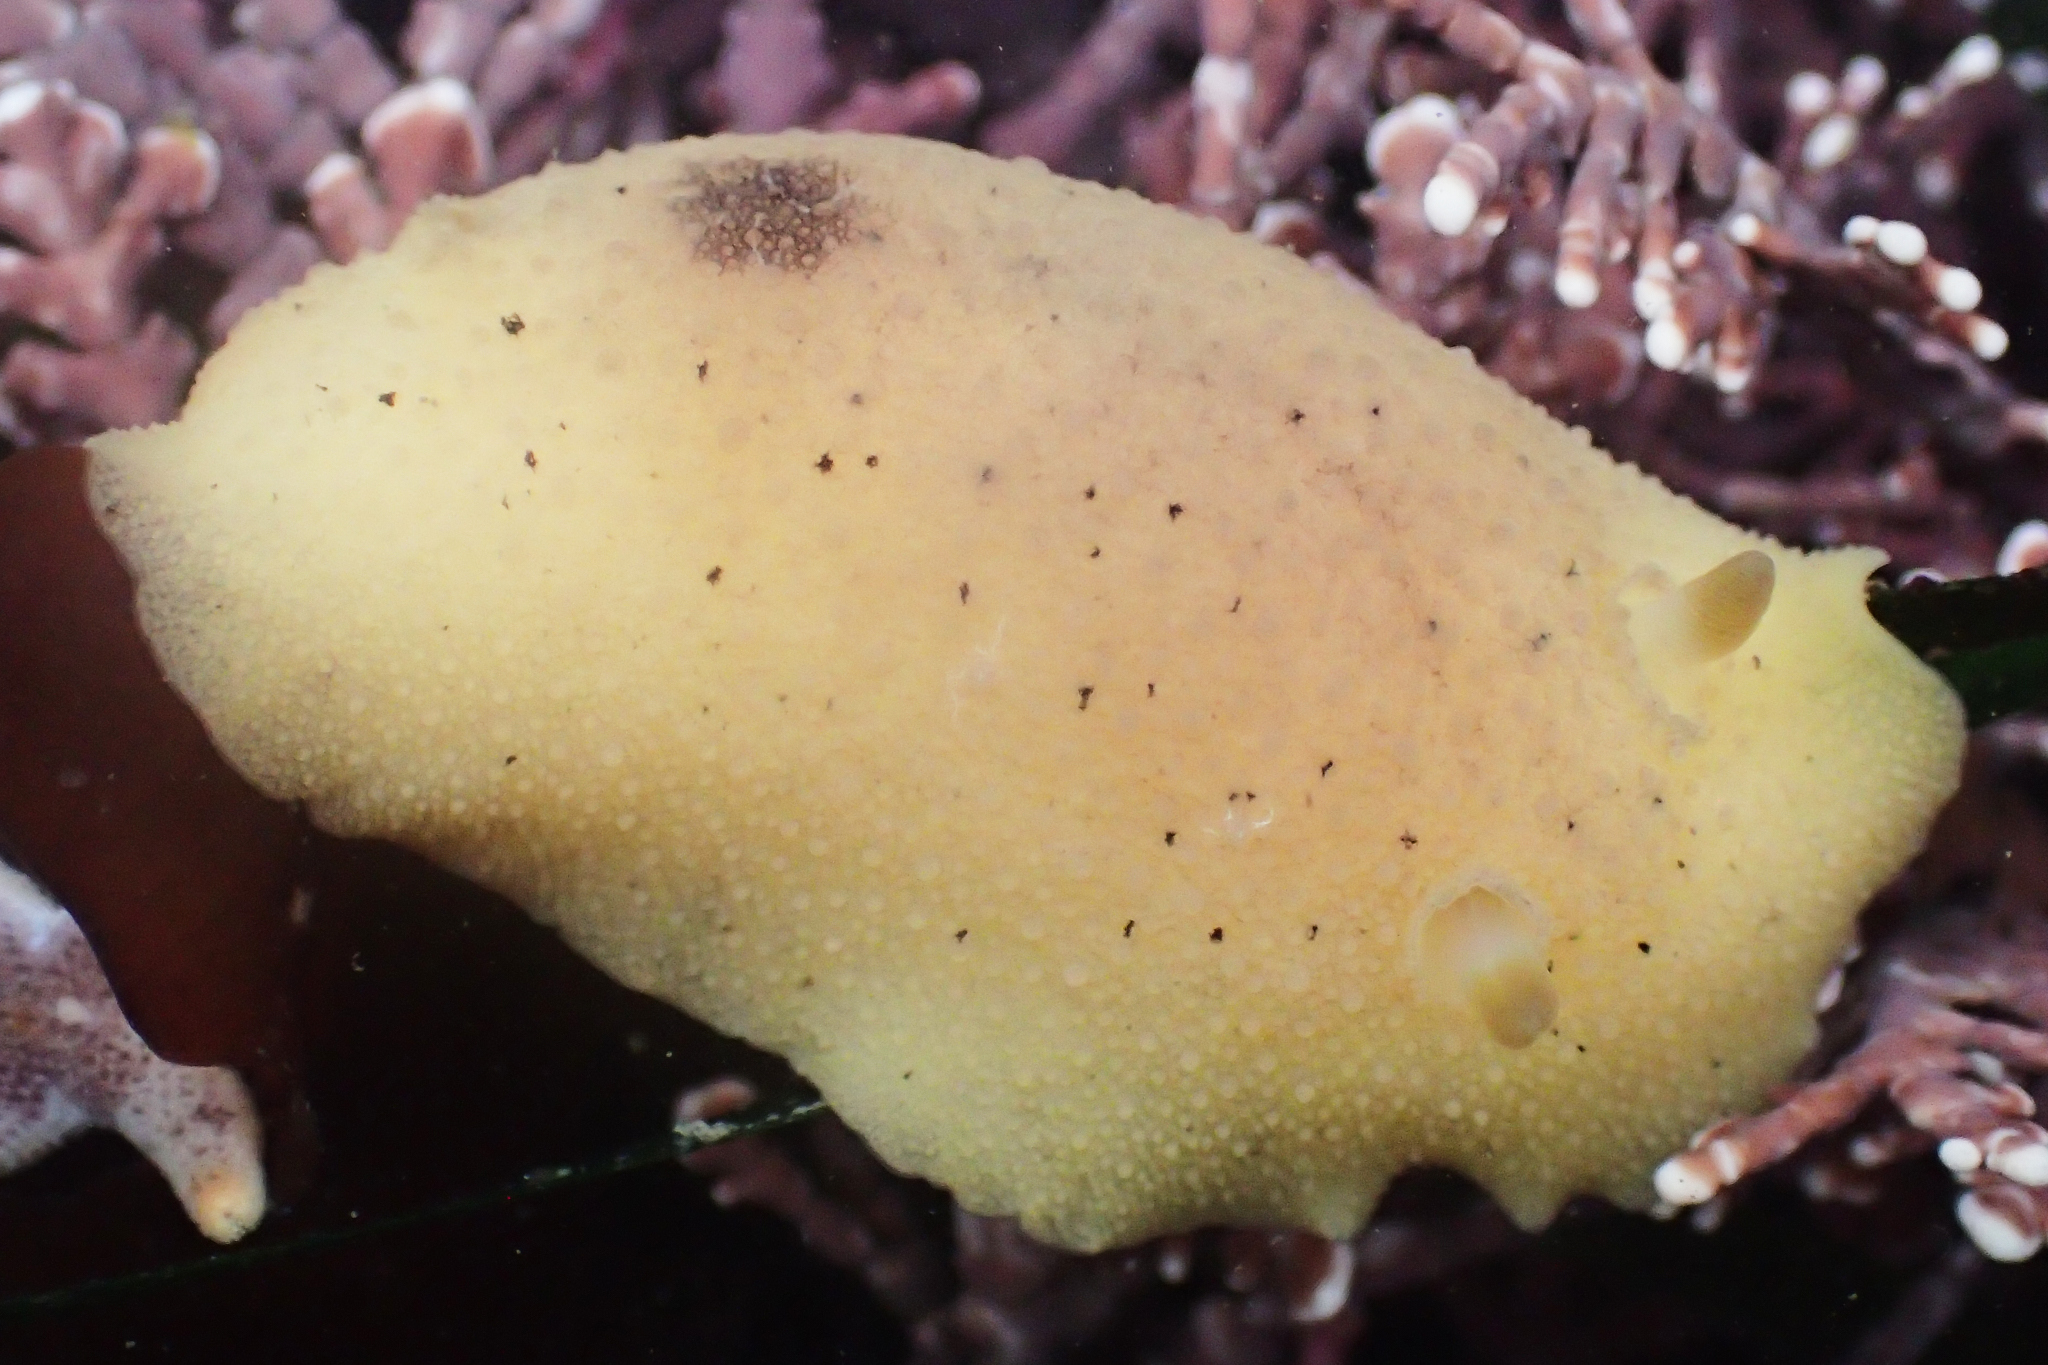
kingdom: Animalia
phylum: Mollusca
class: Gastropoda
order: Nudibranchia
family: Discodorididae
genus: Geitodoris
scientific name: Geitodoris heathi
